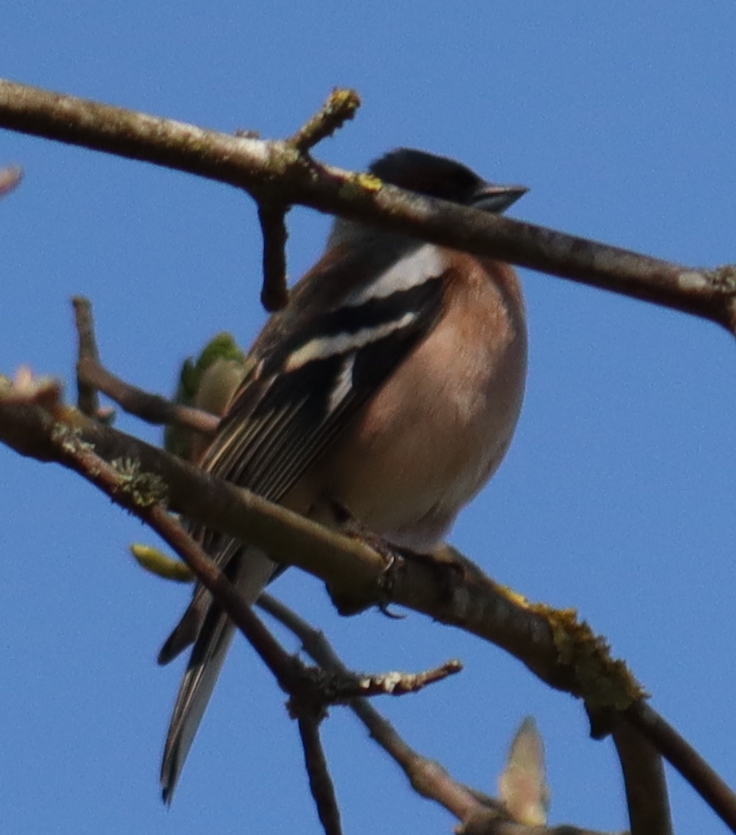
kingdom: Animalia
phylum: Chordata
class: Aves
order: Passeriformes
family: Fringillidae
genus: Fringilla
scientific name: Fringilla coelebs
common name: Common chaffinch
